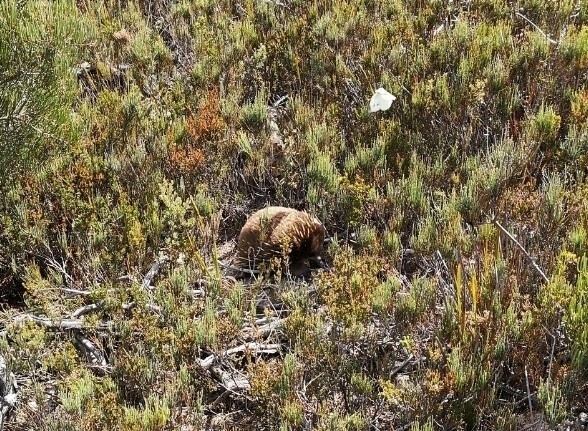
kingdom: Animalia
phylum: Chordata
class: Mammalia
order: Monotremata
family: Tachyglossidae
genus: Tachyglossus
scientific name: Tachyglossus aculeatus
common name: Short-beaked echidna
